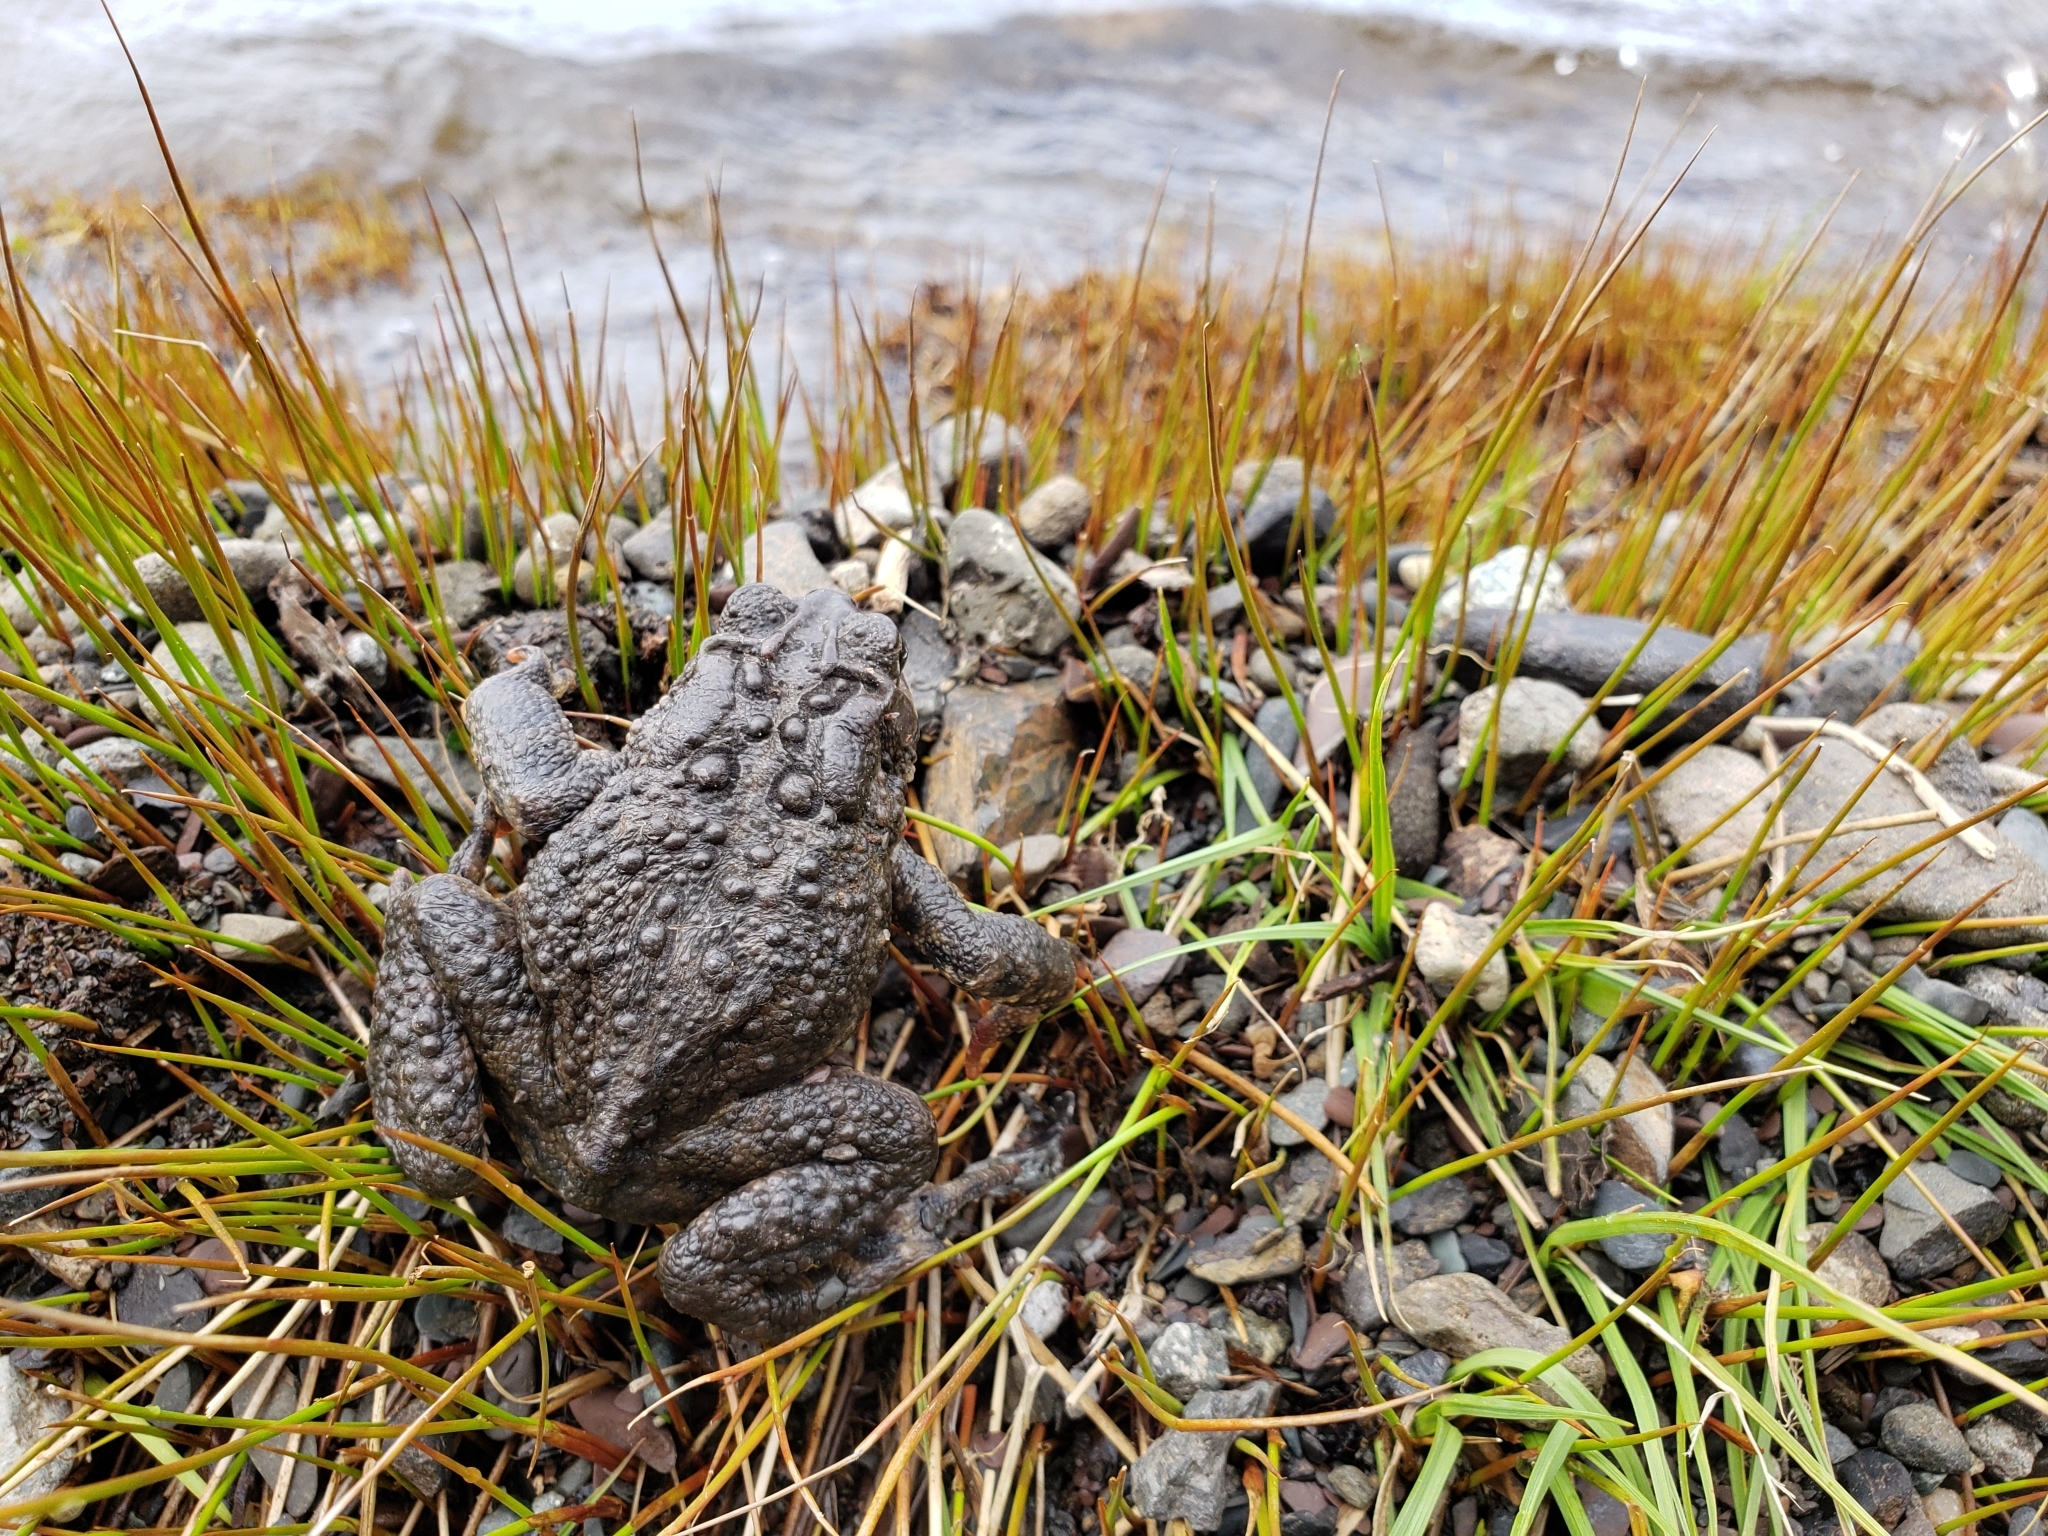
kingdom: Animalia
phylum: Chordata
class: Amphibia
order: Anura
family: Bufonidae
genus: Anaxyrus
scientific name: Anaxyrus americanus
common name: American toad
